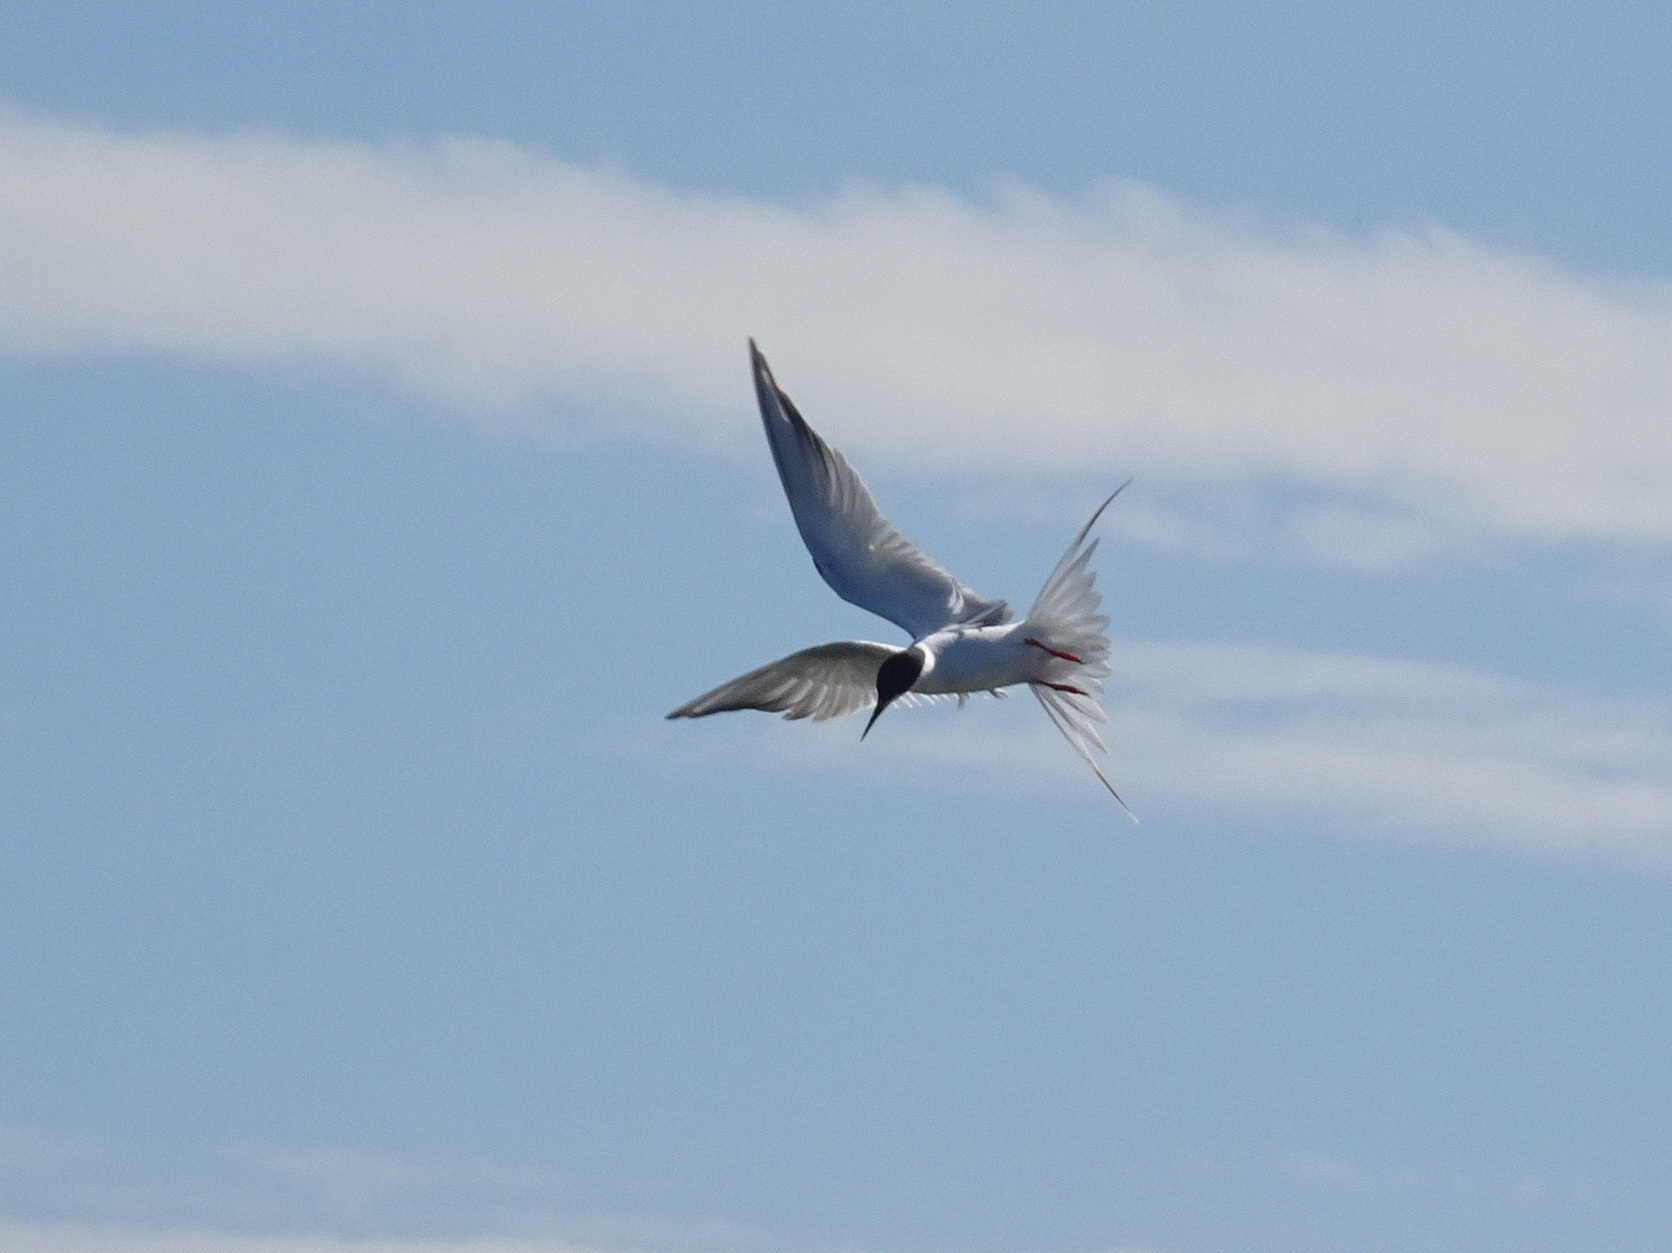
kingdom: Animalia
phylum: Chordata
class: Aves
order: Charadriiformes
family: Laridae
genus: Sterna
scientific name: Sterna forsteri
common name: Forster's tern
